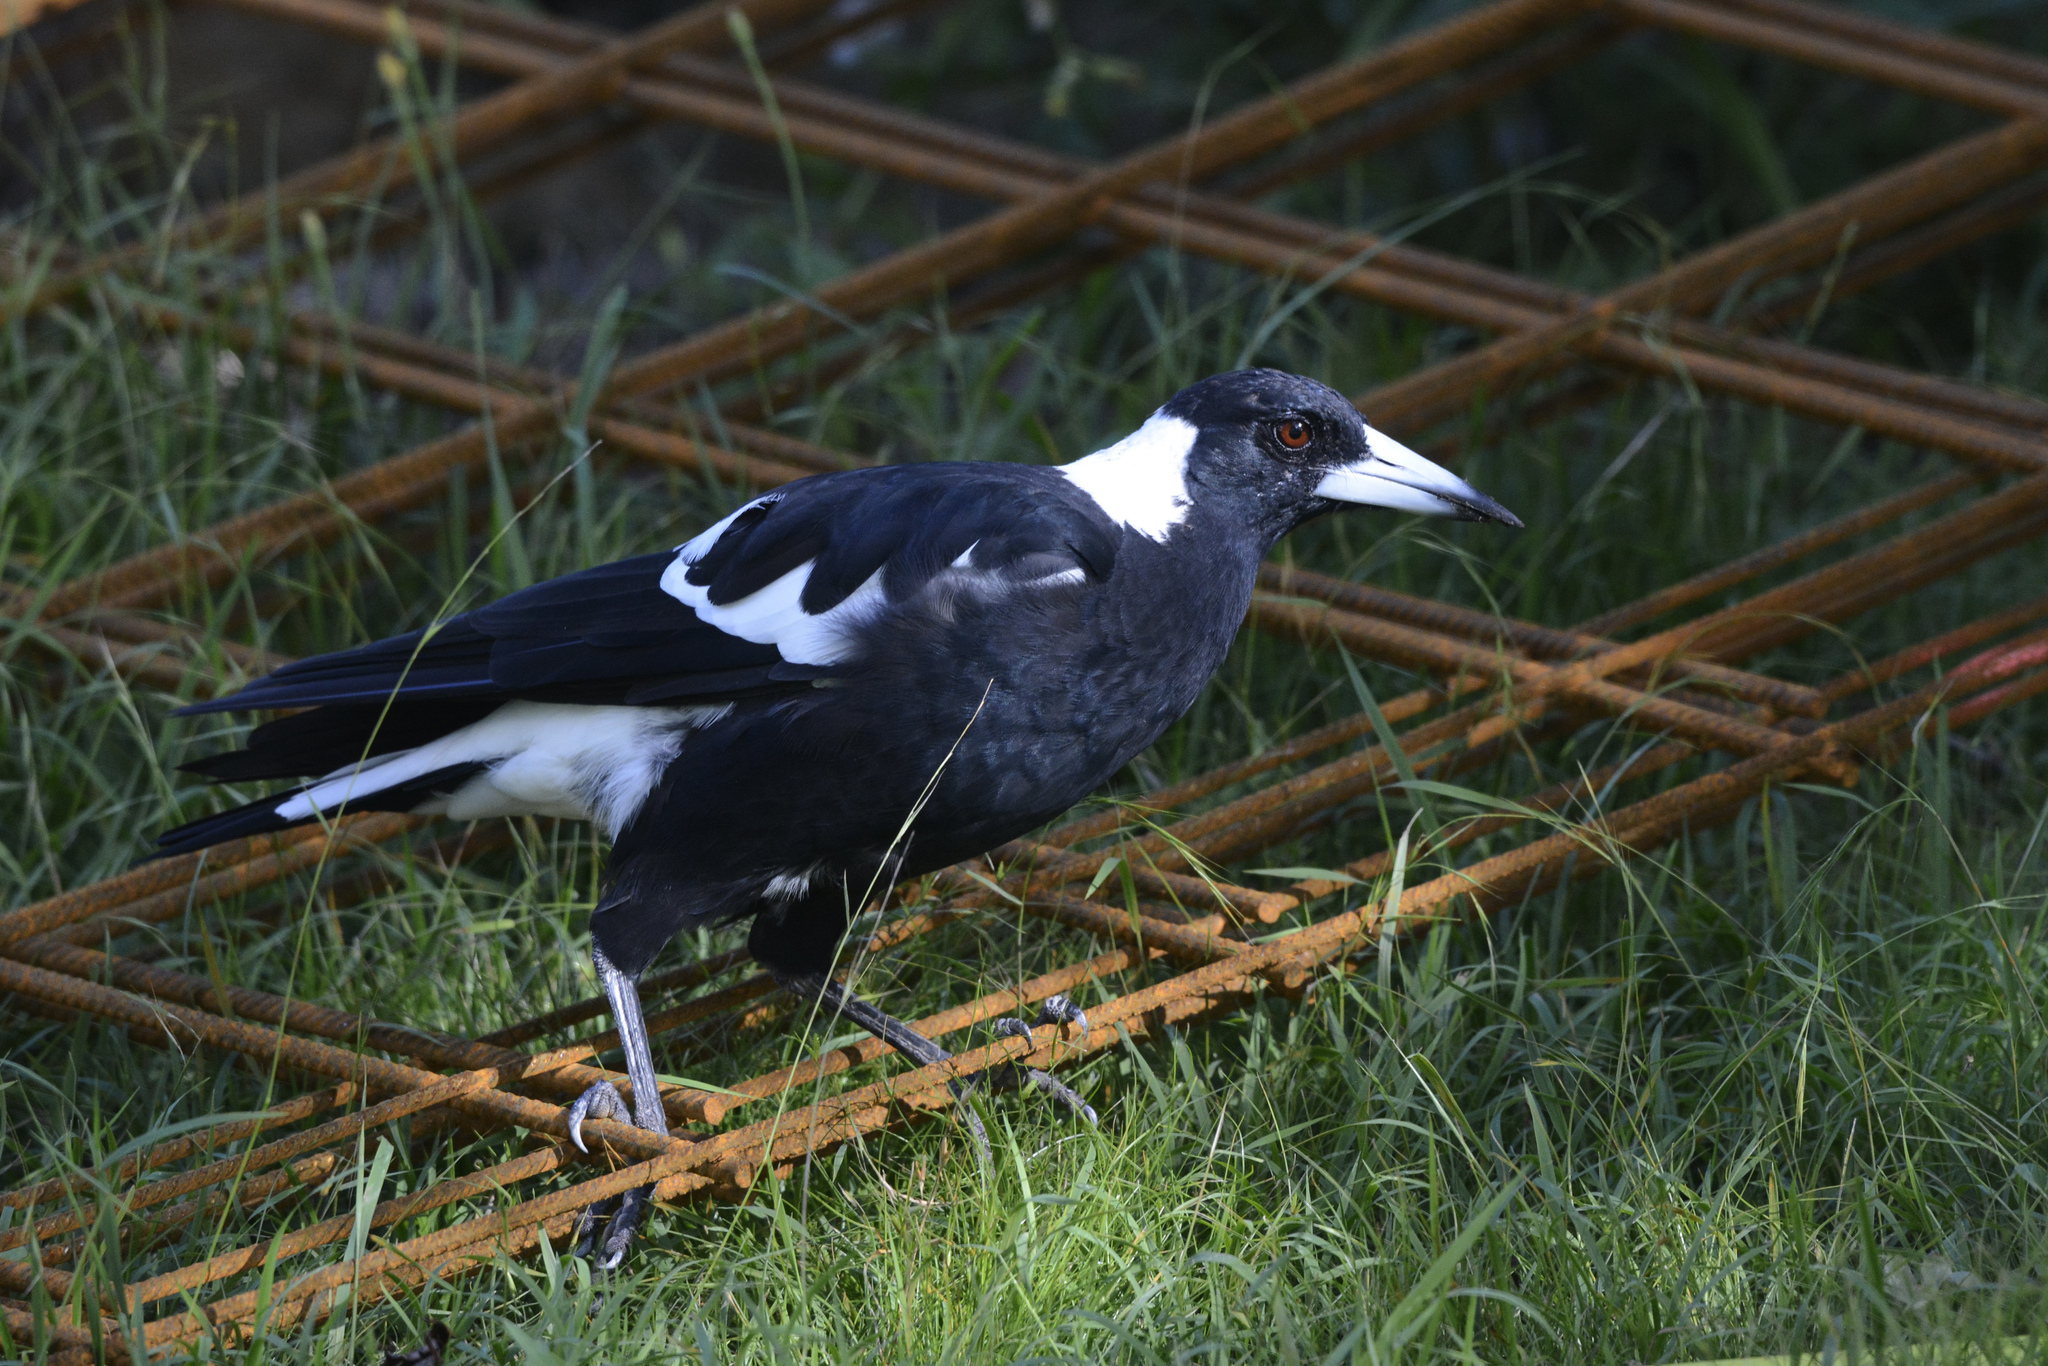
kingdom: Animalia
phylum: Chordata
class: Aves
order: Passeriformes
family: Cracticidae
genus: Gymnorhina
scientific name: Gymnorhina tibicen
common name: Australian magpie
